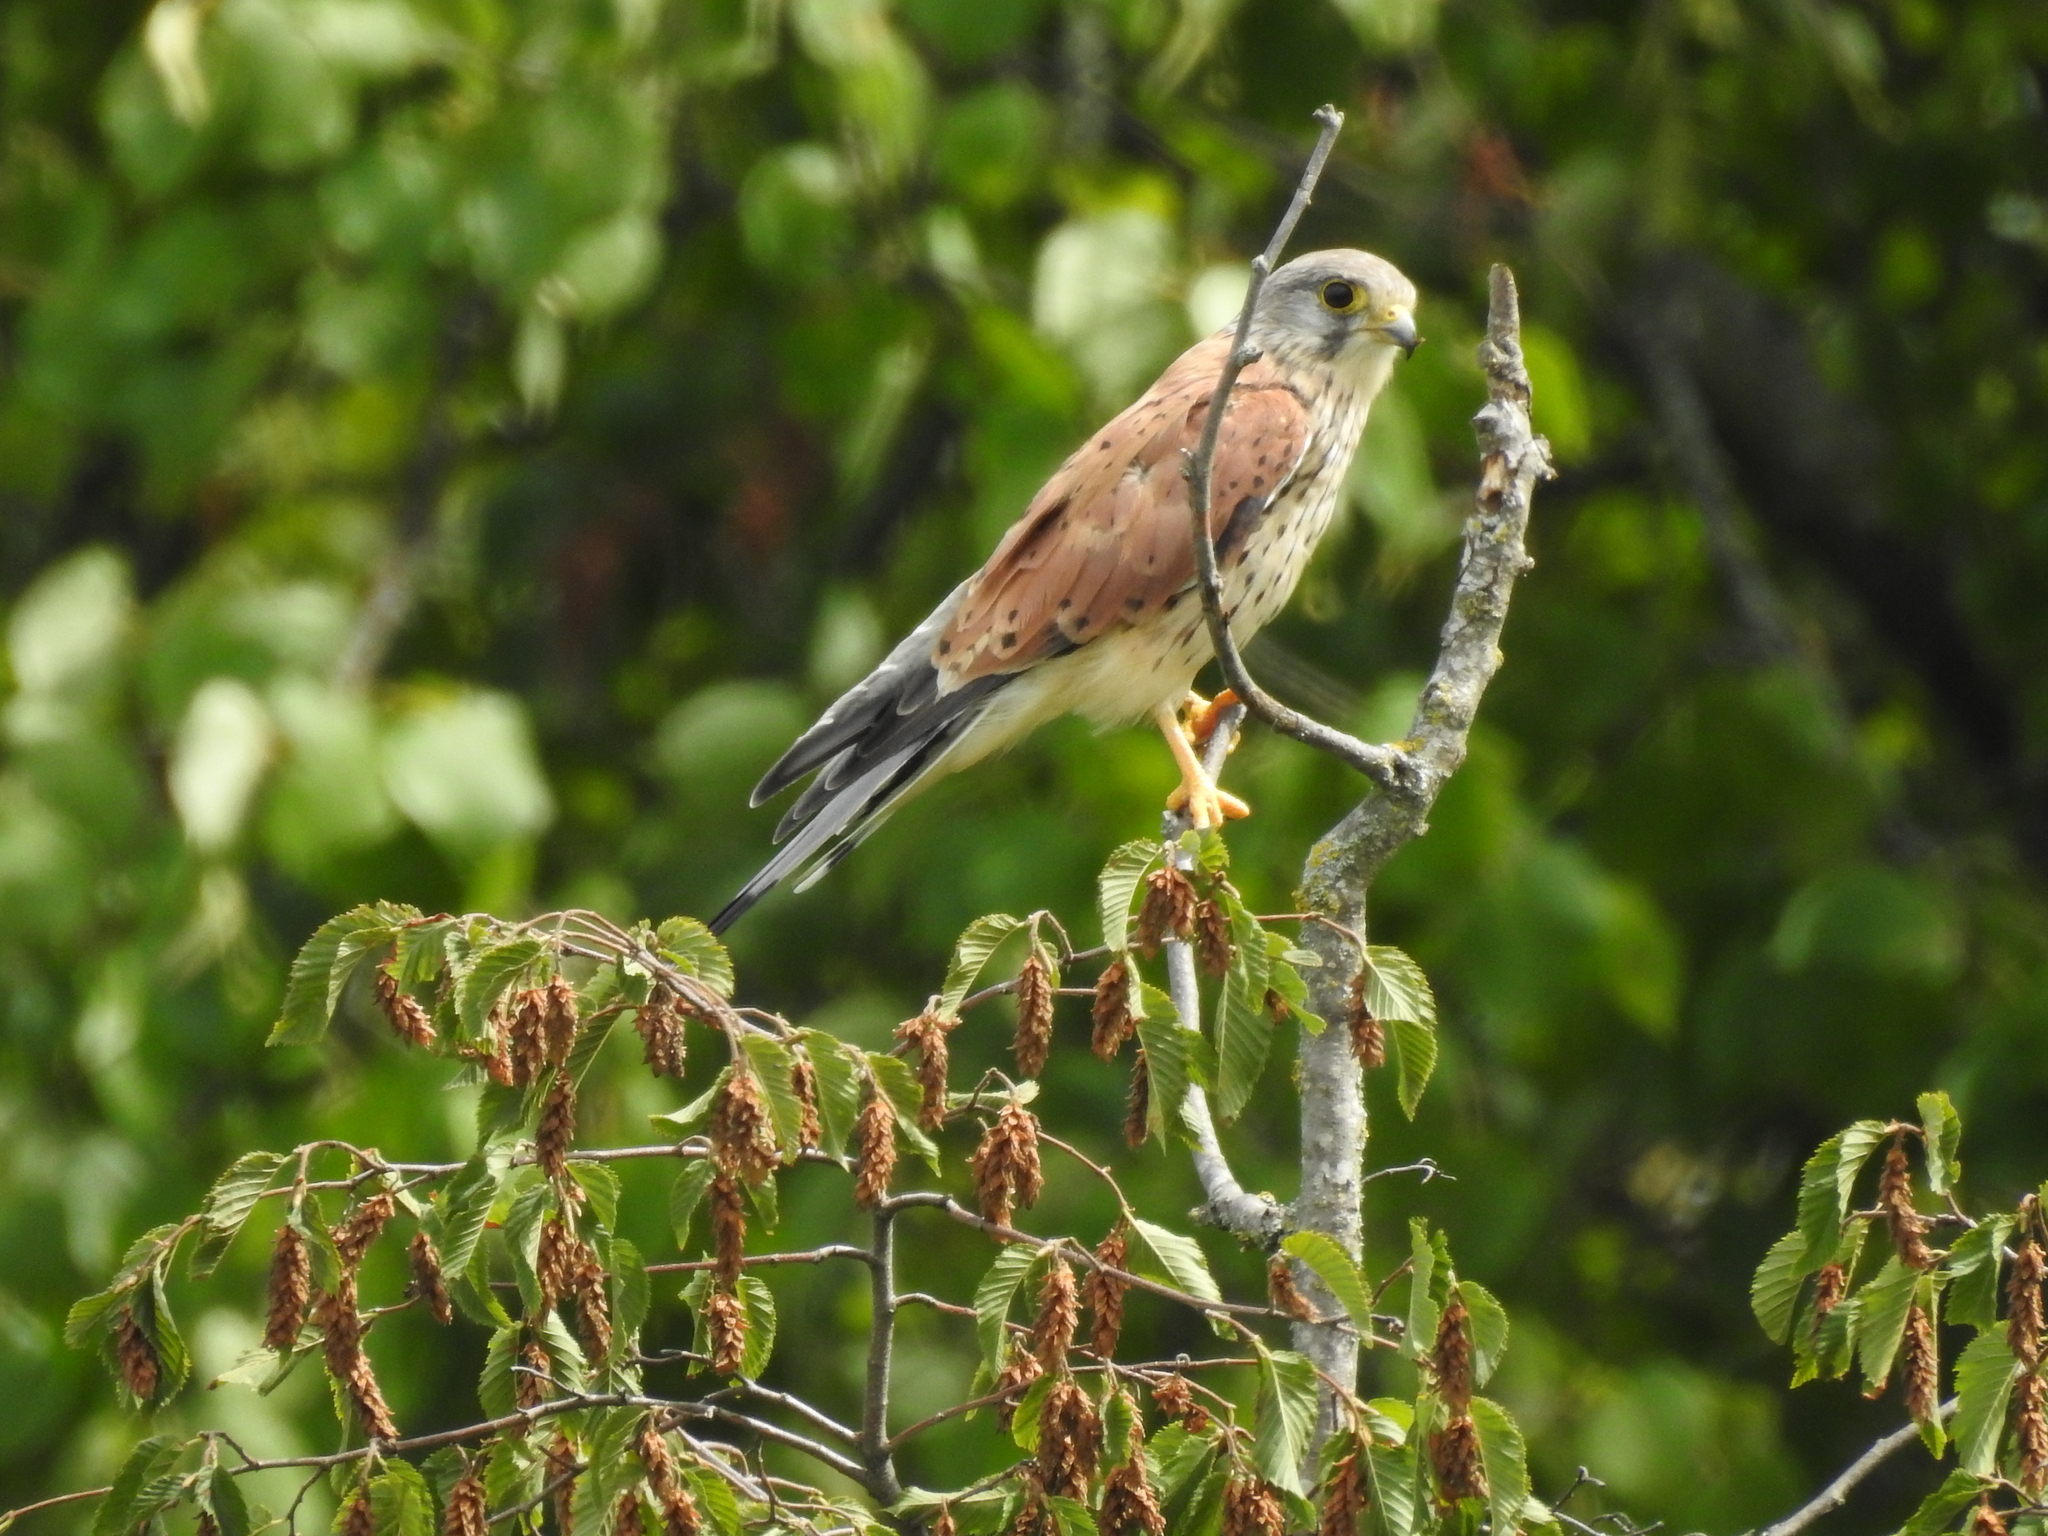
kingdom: Animalia
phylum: Chordata
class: Aves
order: Falconiformes
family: Falconidae
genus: Falco
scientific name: Falco tinnunculus
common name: Common kestrel
